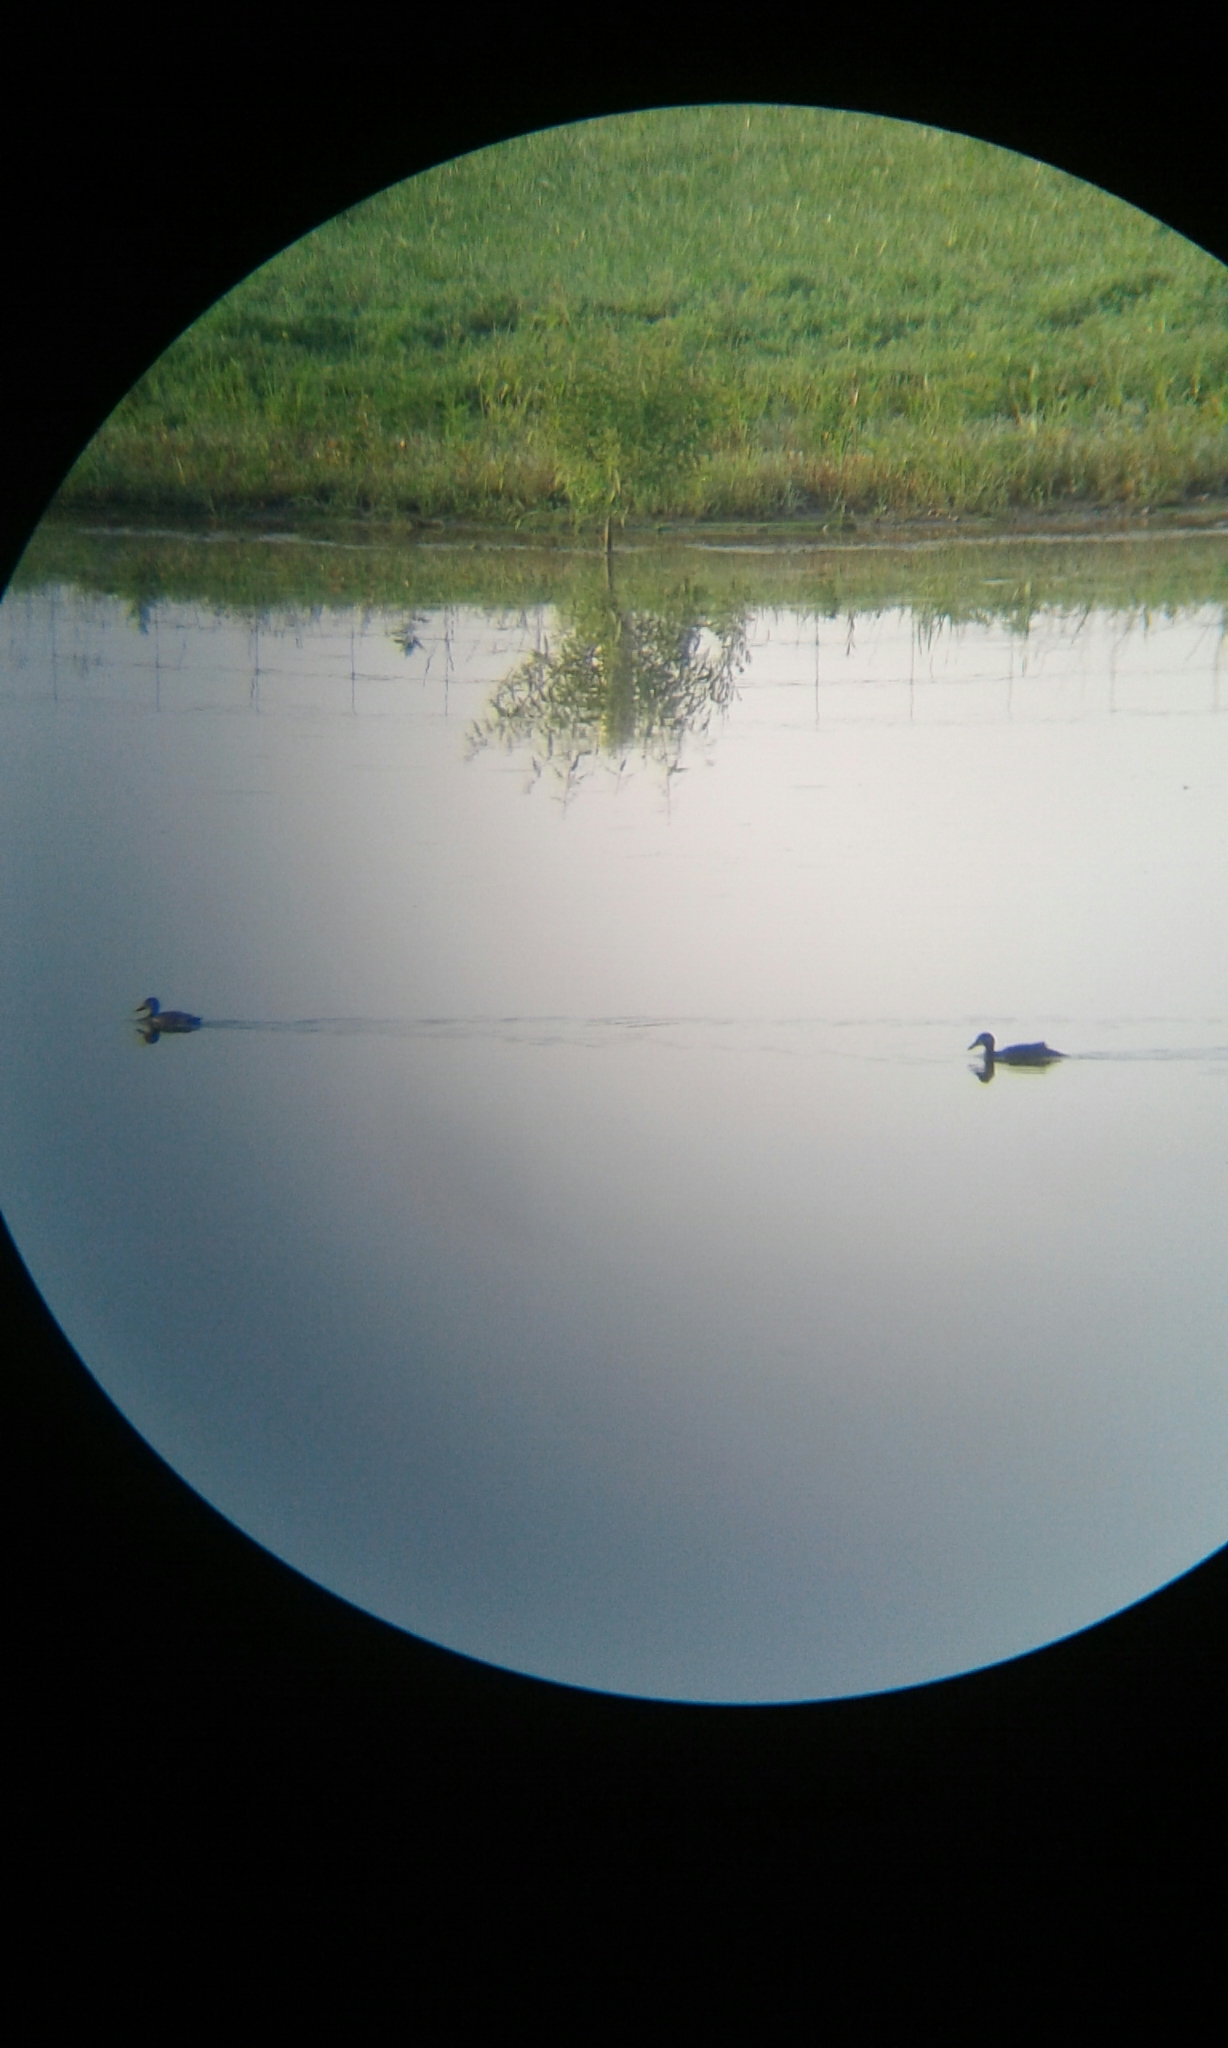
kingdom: Animalia
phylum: Chordata
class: Aves
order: Anseriformes
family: Anatidae
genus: Spatula
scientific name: Spatula discors
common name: Blue-winged teal
